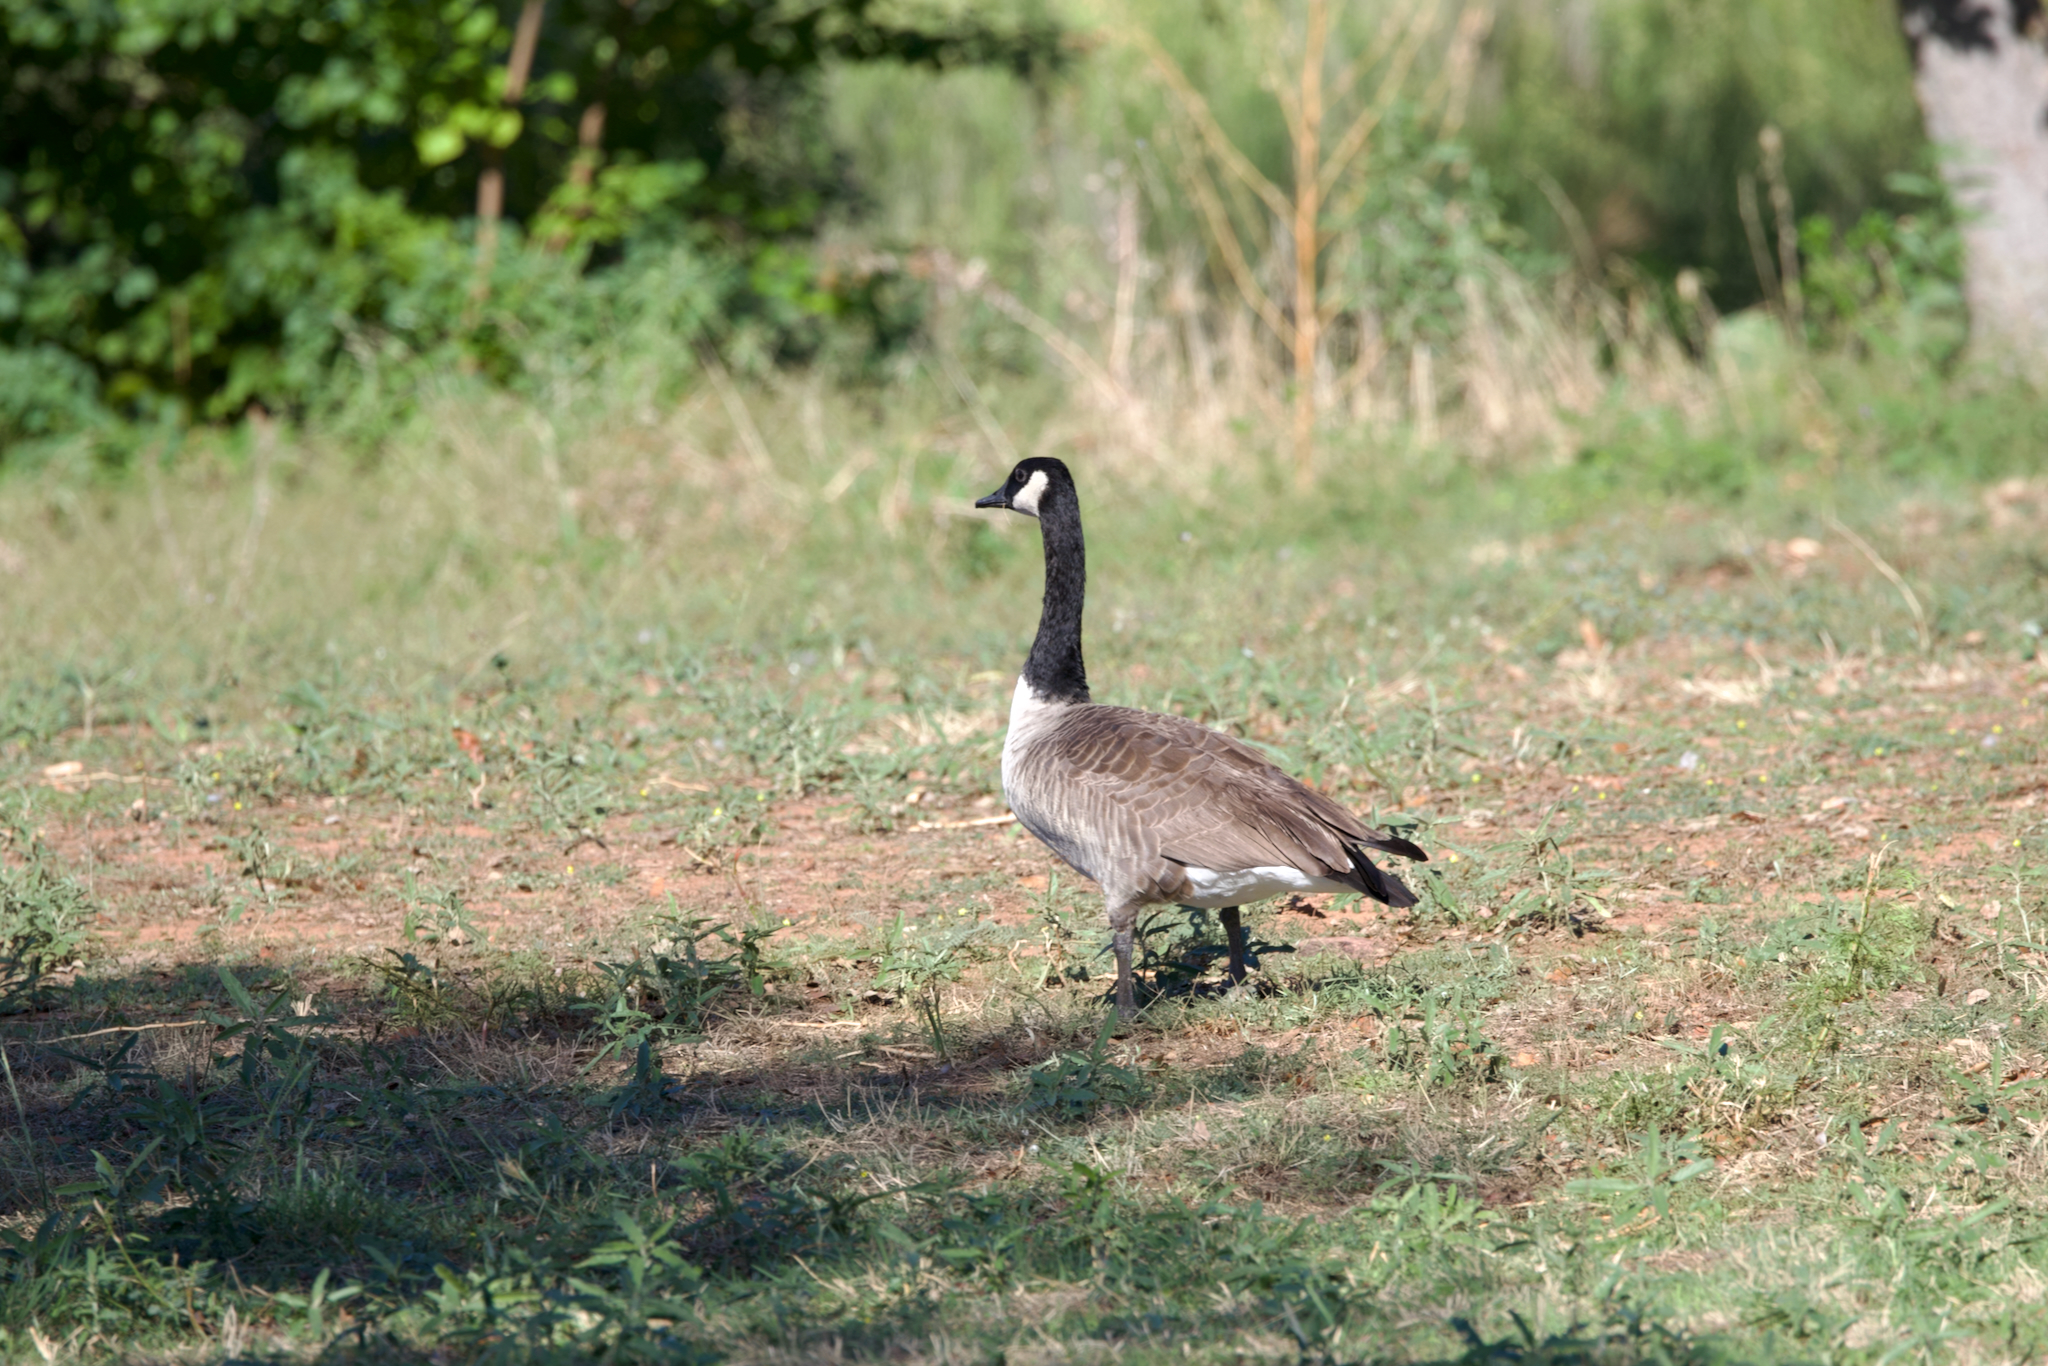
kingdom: Animalia
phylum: Chordata
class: Aves
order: Anseriformes
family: Anatidae
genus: Branta
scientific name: Branta canadensis
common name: Canada goose
